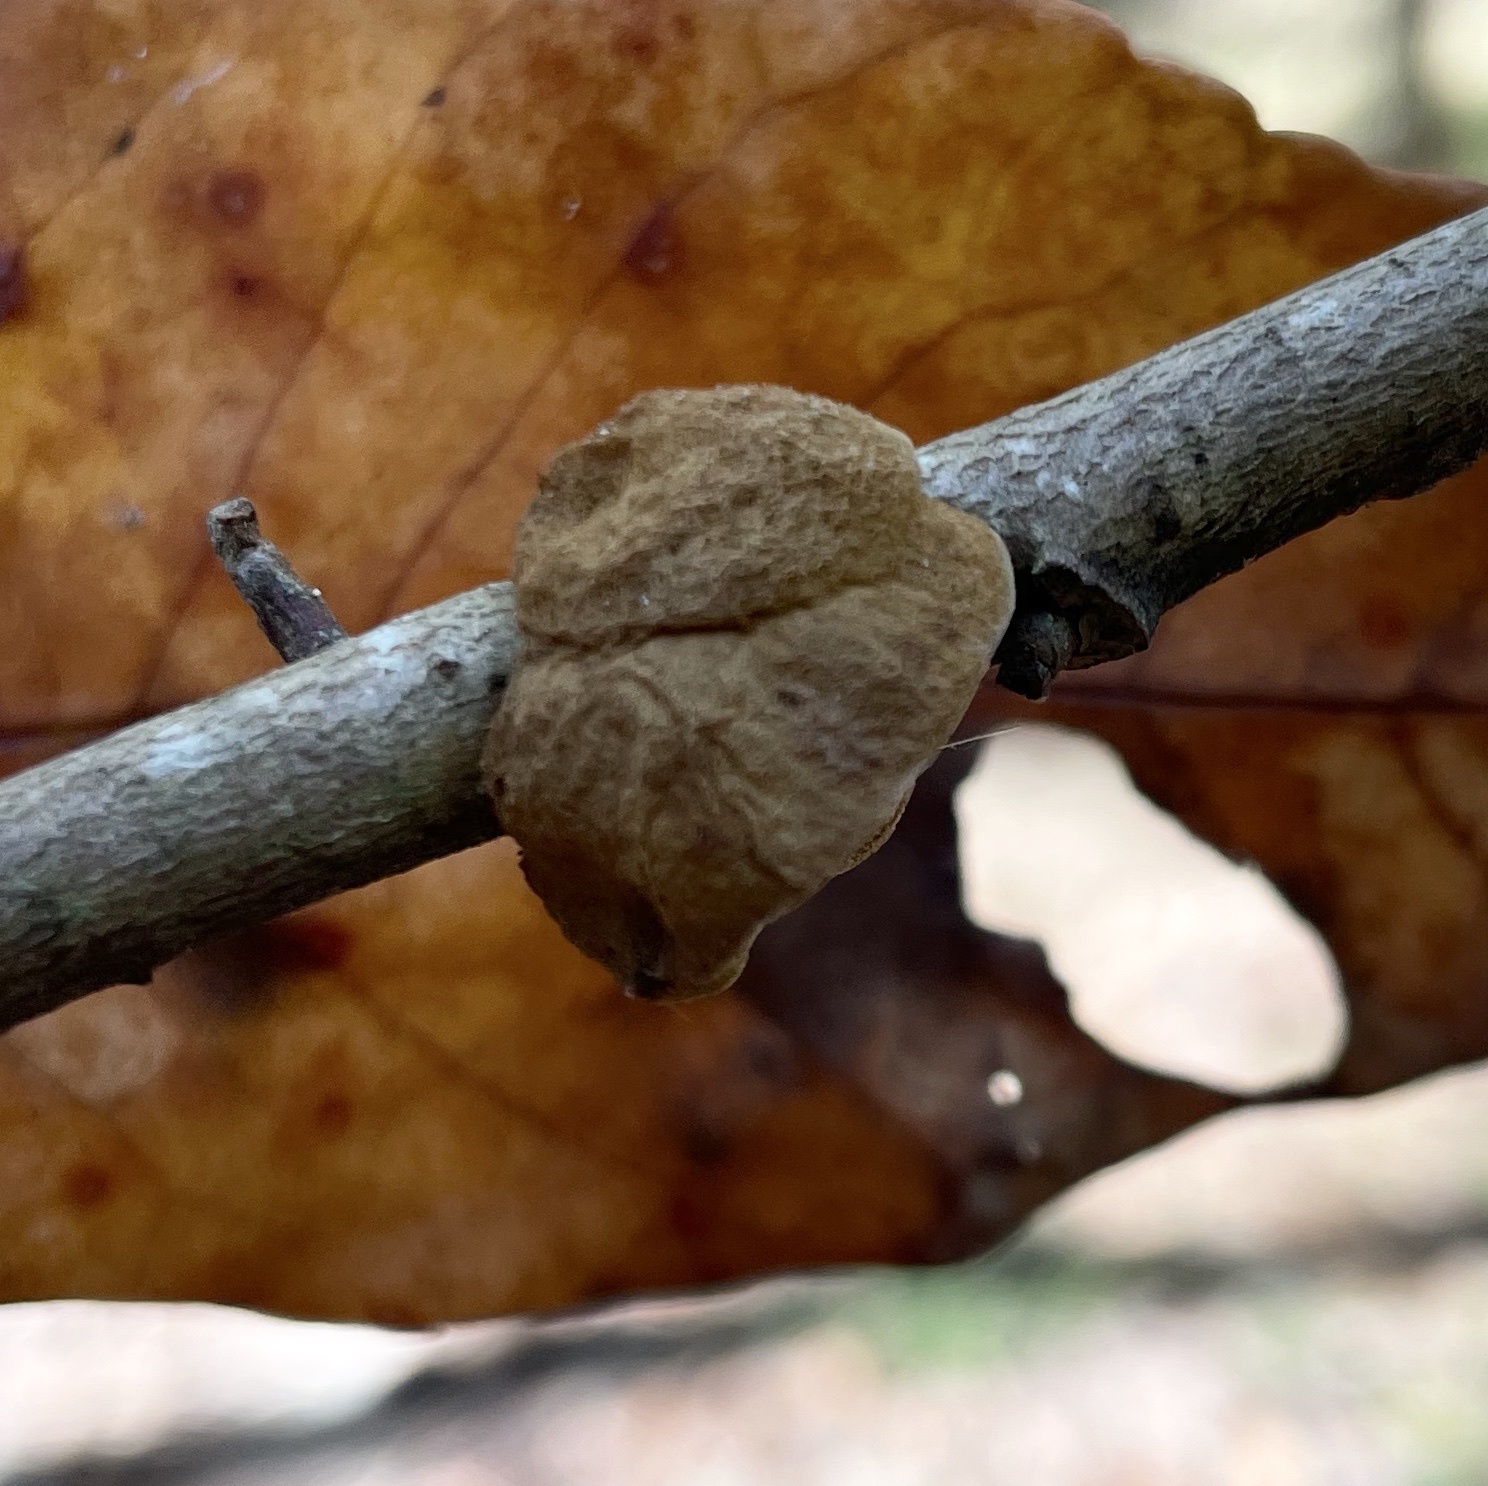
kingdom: Fungi
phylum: Basidiomycota
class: Agaricomycetes
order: Hymenochaetales
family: Hymenochaetaceae
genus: Phylloporia
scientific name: Phylloporia amplectens
